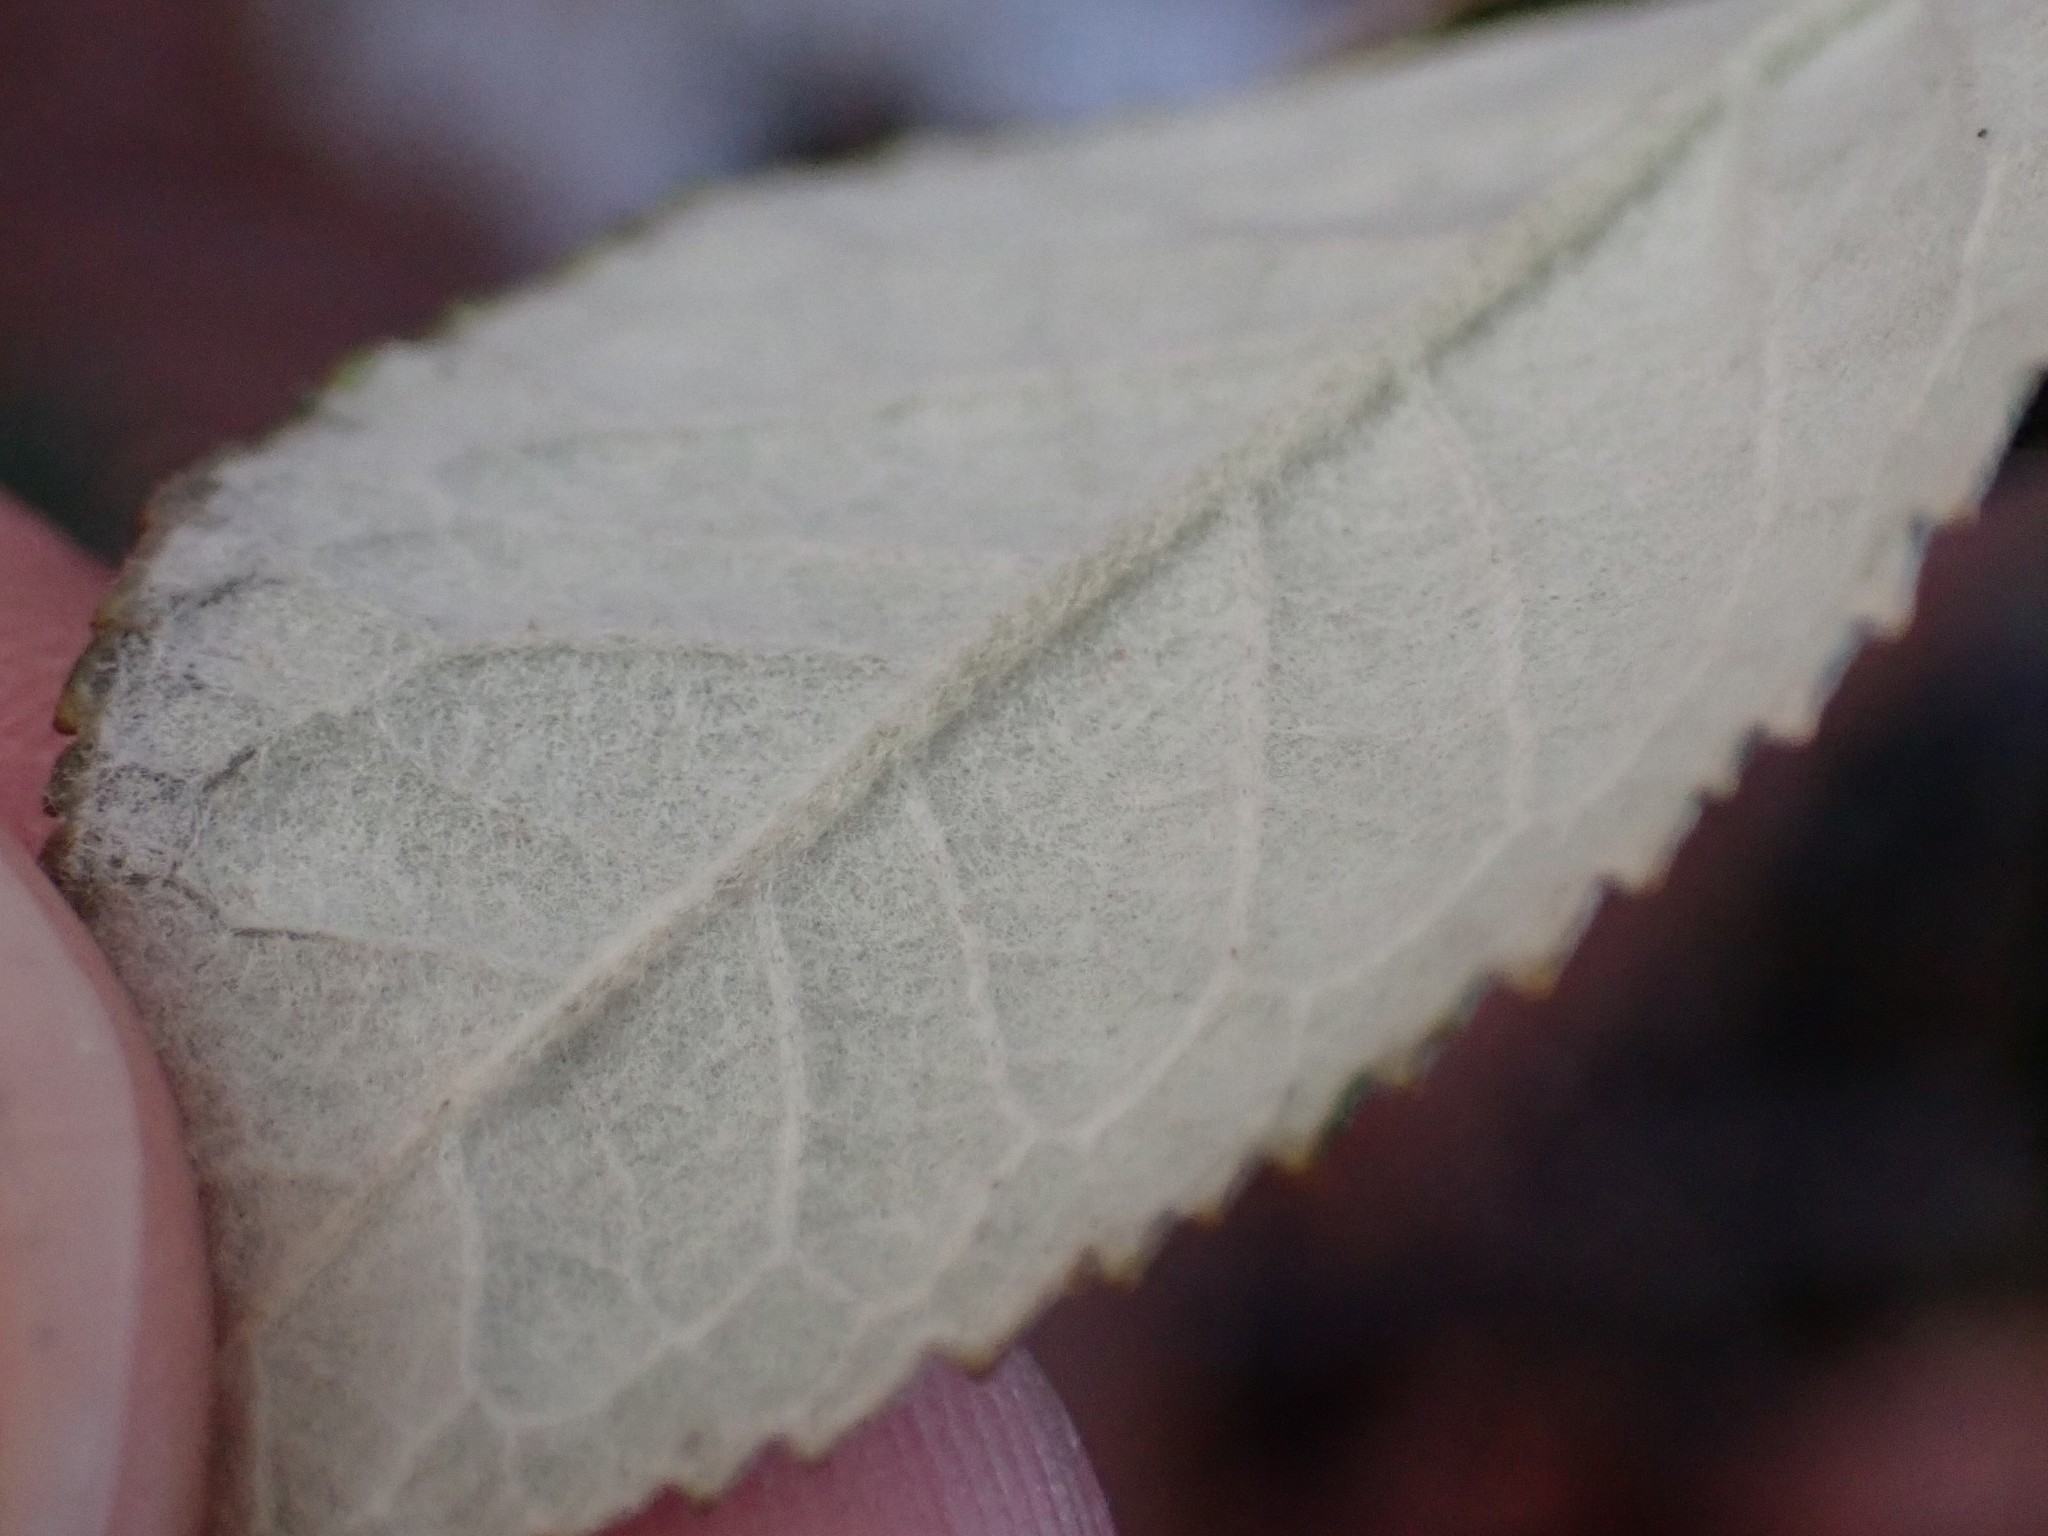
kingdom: Plantae
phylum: Tracheophyta
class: Magnoliopsida
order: Lamiales
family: Scrophulariaceae
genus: Buddleja
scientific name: Buddleja davidii
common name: Butterfly-bush
